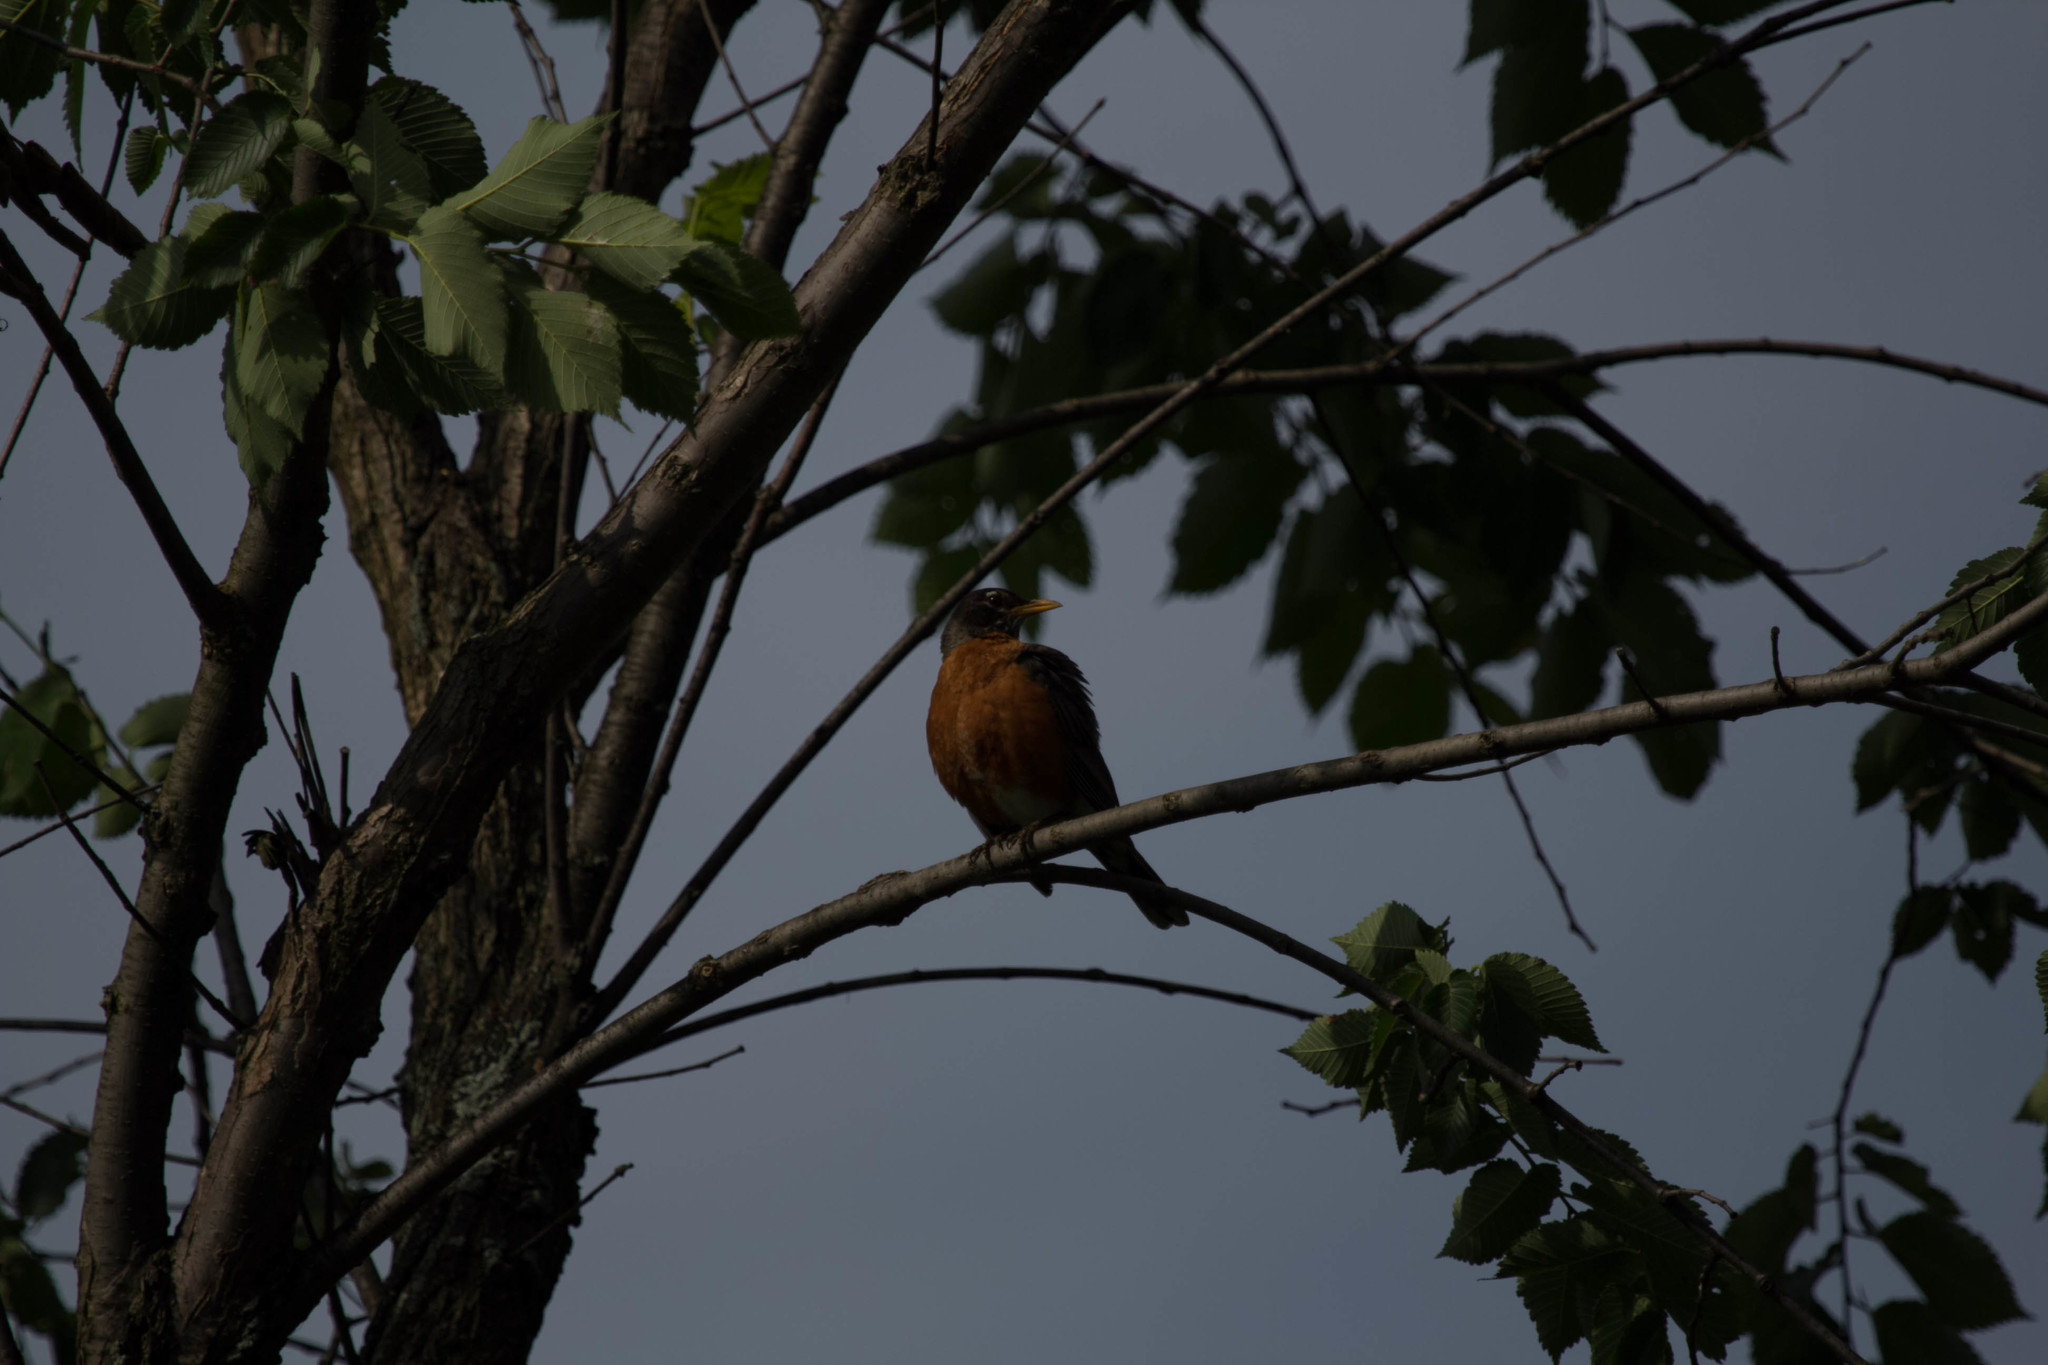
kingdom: Animalia
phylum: Chordata
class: Aves
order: Passeriformes
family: Turdidae
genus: Turdus
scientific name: Turdus migratorius
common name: American robin
